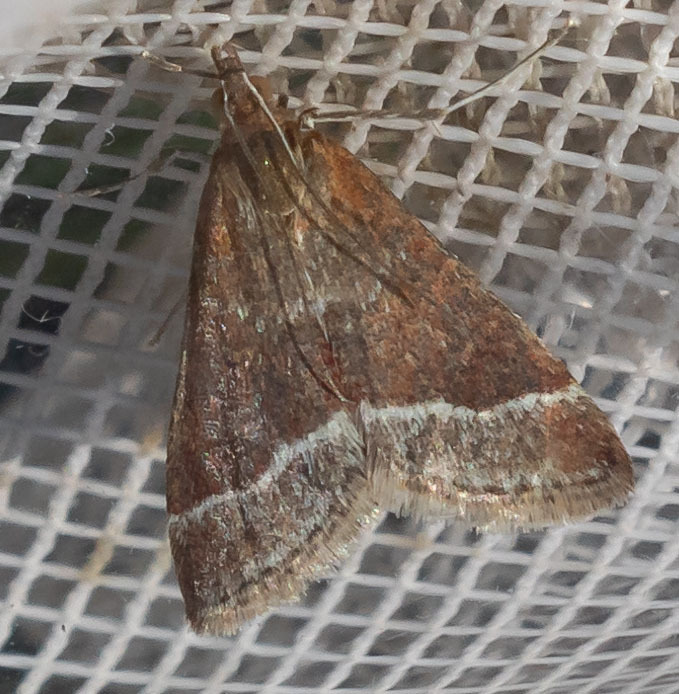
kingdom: Animalia
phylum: Arthropoda
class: Insecta
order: Lepidoptera
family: Crambidae
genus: Pyrausta
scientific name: Pyrausta lethalis
